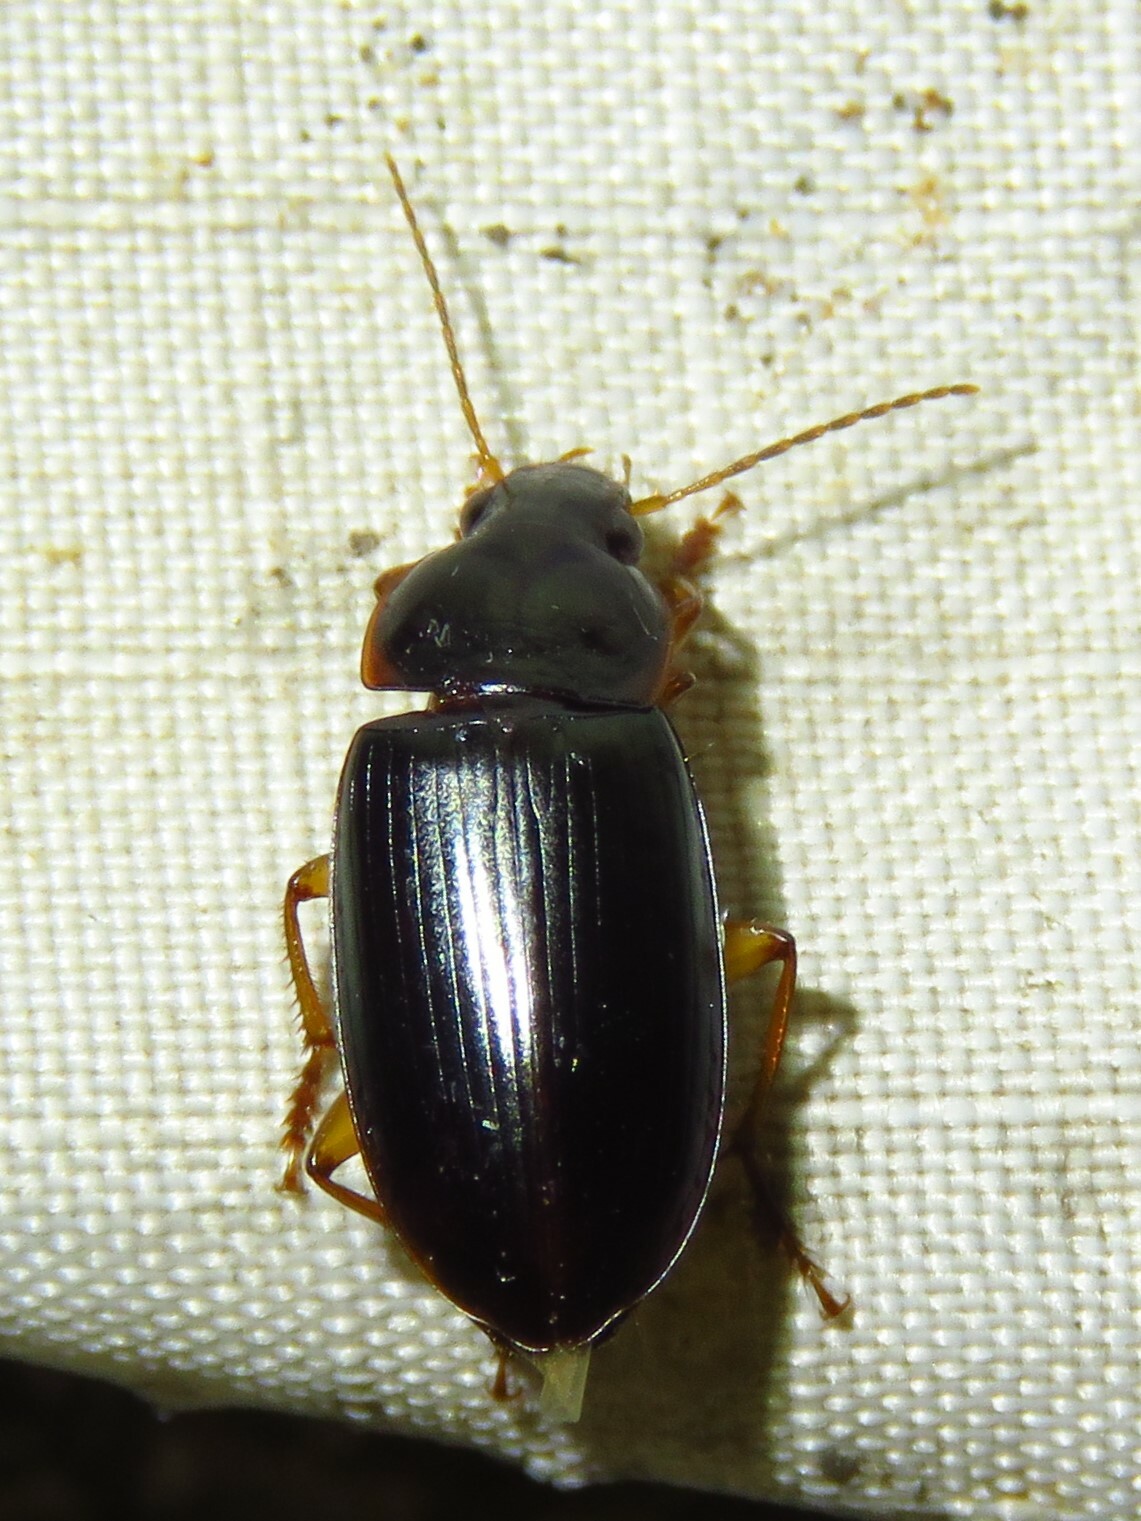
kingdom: Animalia
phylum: Arthropoda
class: Insecta
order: Coleoptera
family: Carabidae
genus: Notiobia
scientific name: Notiobia terminata
